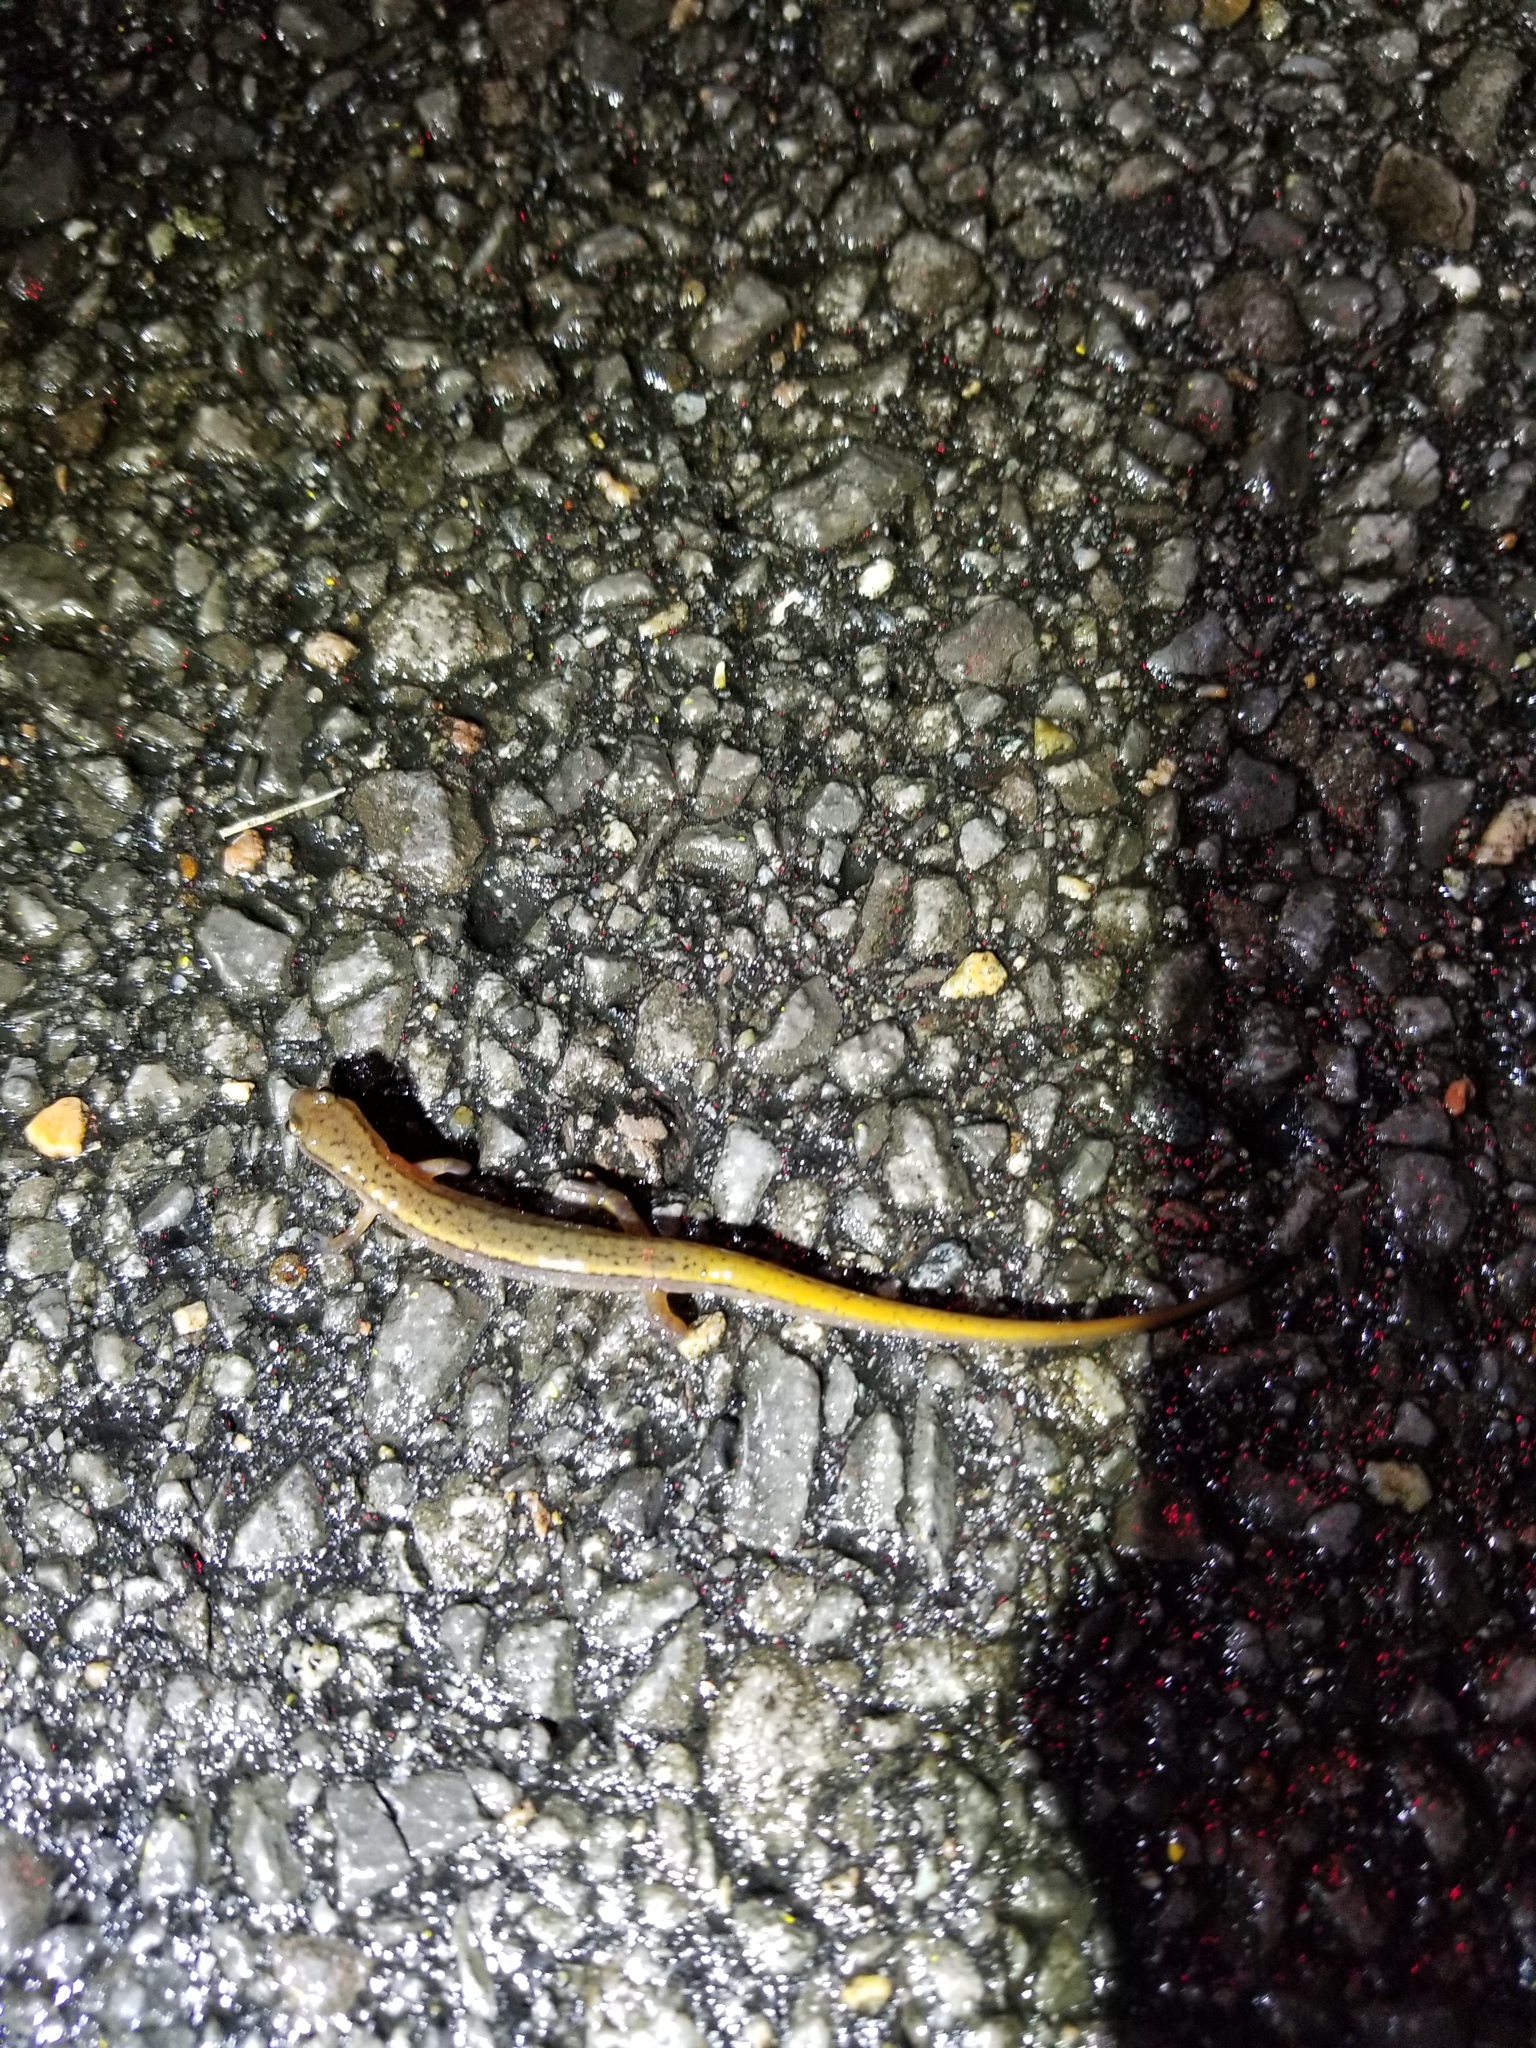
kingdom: Animalia
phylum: Chordata
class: Amphibia
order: Caudata
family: Plethodontidae
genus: Eurycea
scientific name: Eurycea bislineata
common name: Northern two-lined salamander
